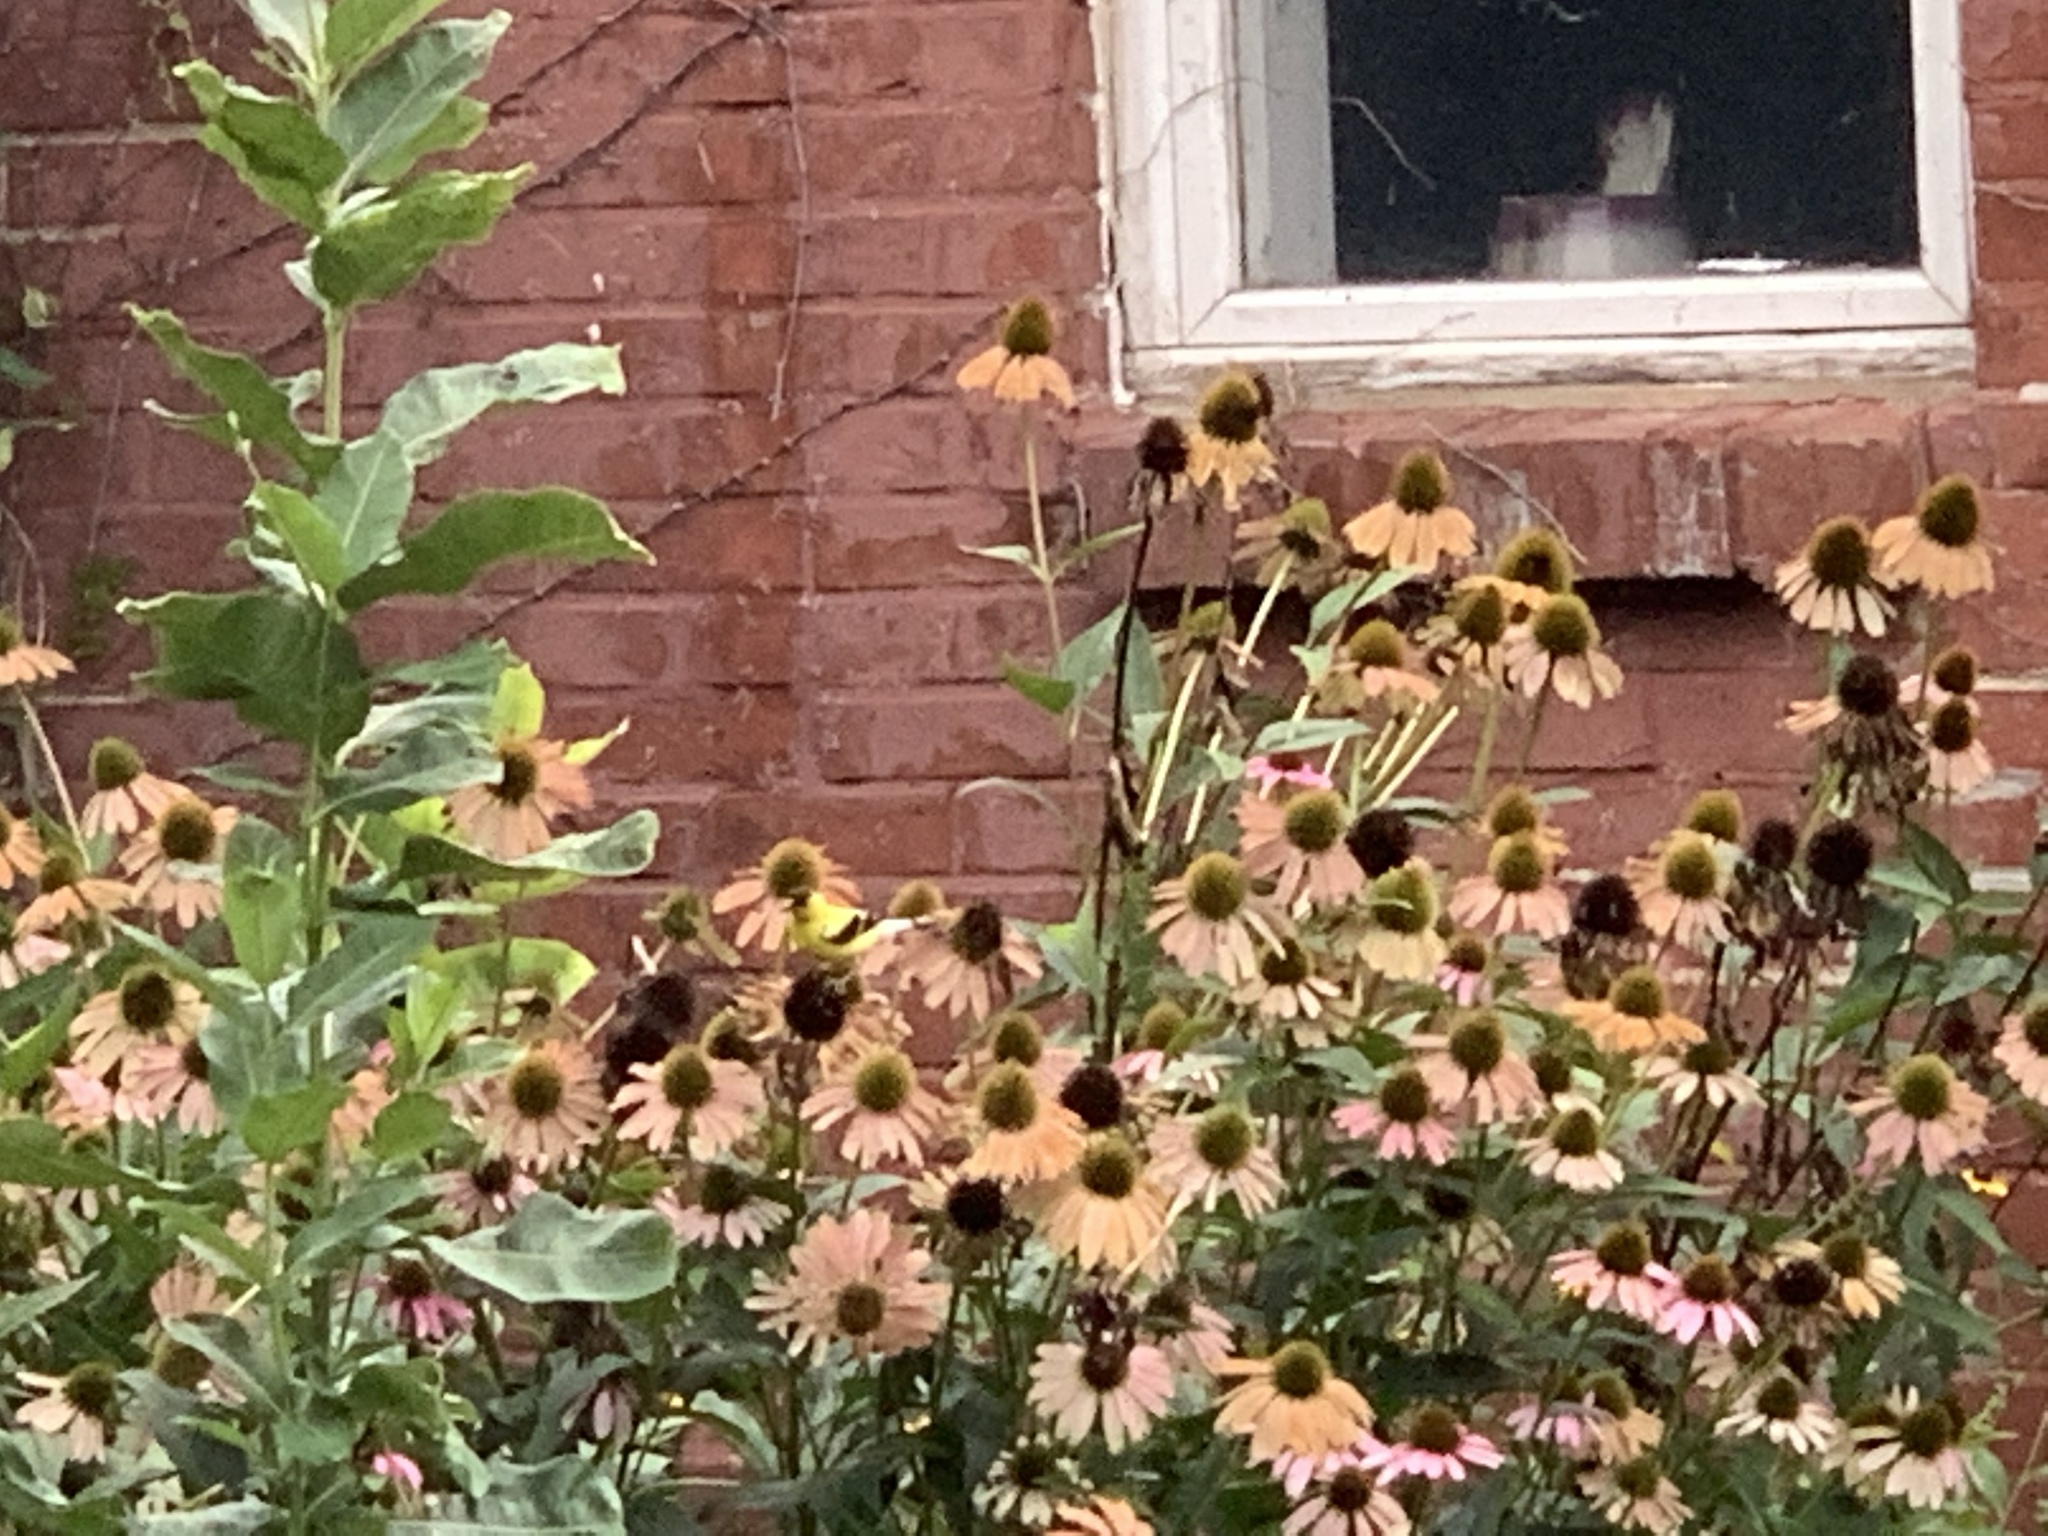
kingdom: Animalia
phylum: Chordata
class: Aves
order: Passeriformes
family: Fringillidae
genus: Spinus
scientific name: Spinus tristis
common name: American goldfinch
